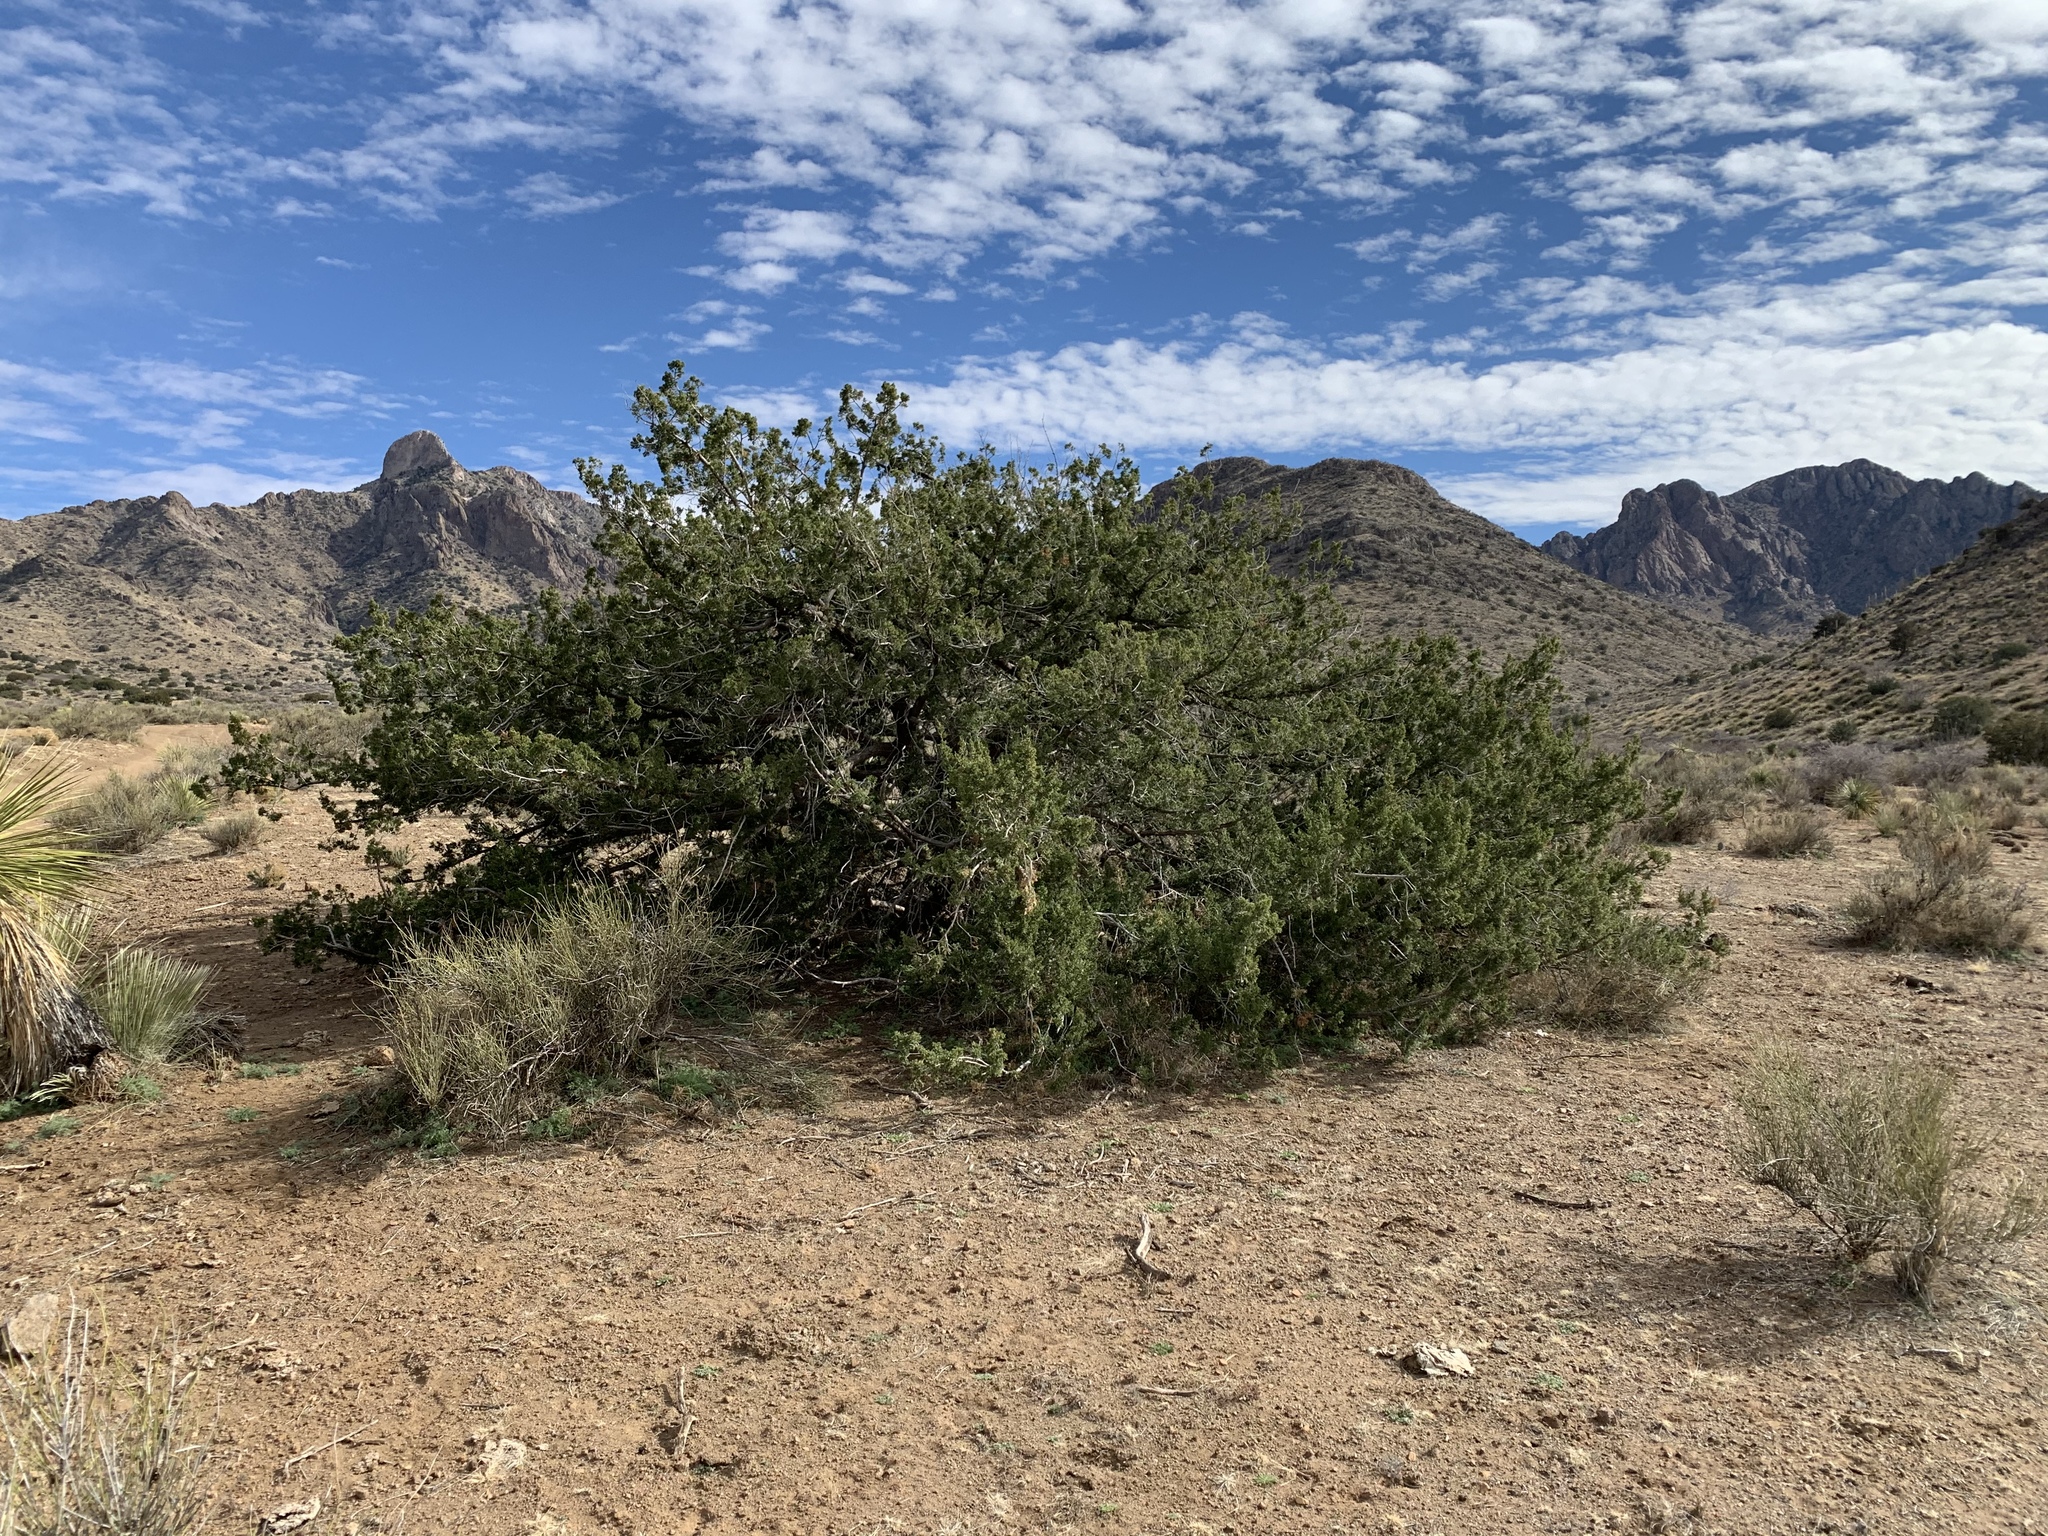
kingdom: Plantae
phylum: Tracheophyta
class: Pinopsida
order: Pinales
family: Cupressaceae
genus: Juniperus
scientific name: Juniperus arizonica
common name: Arizona juniper
